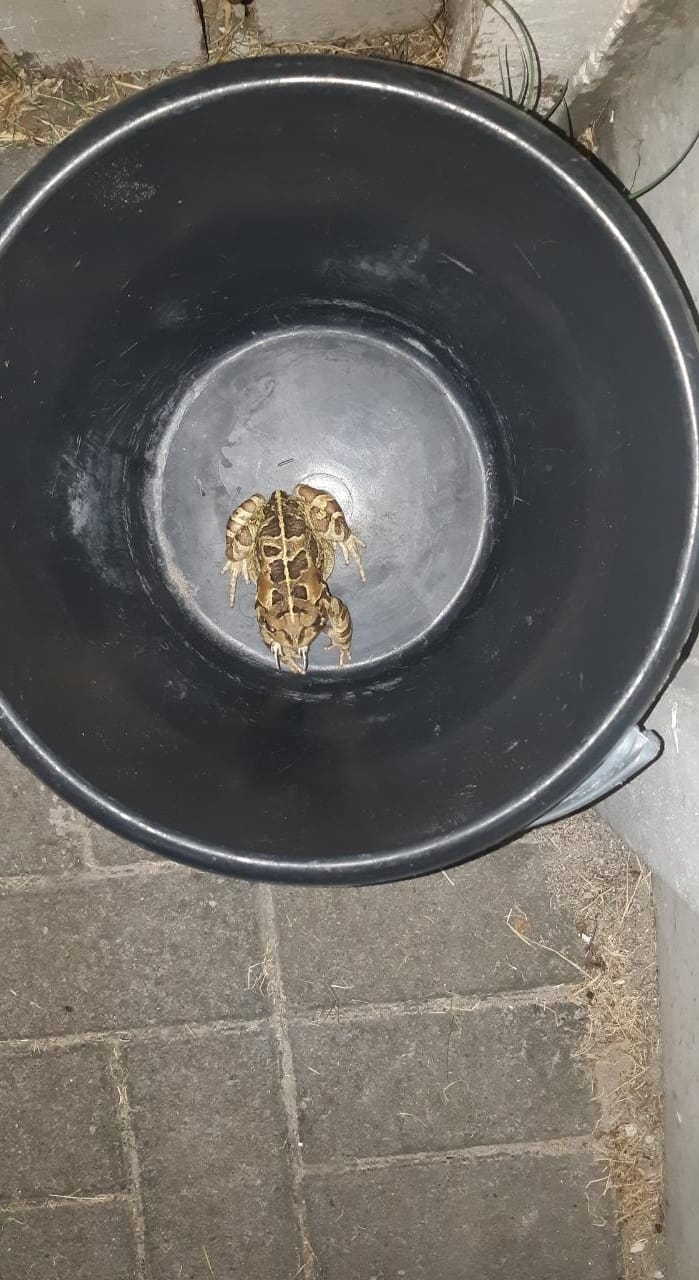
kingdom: Animalia
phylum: Chordata
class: Amphibia
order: Anura
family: Bufonidae
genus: Sclerophrys
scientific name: Sclerophrys pantherina
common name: Panther toad
